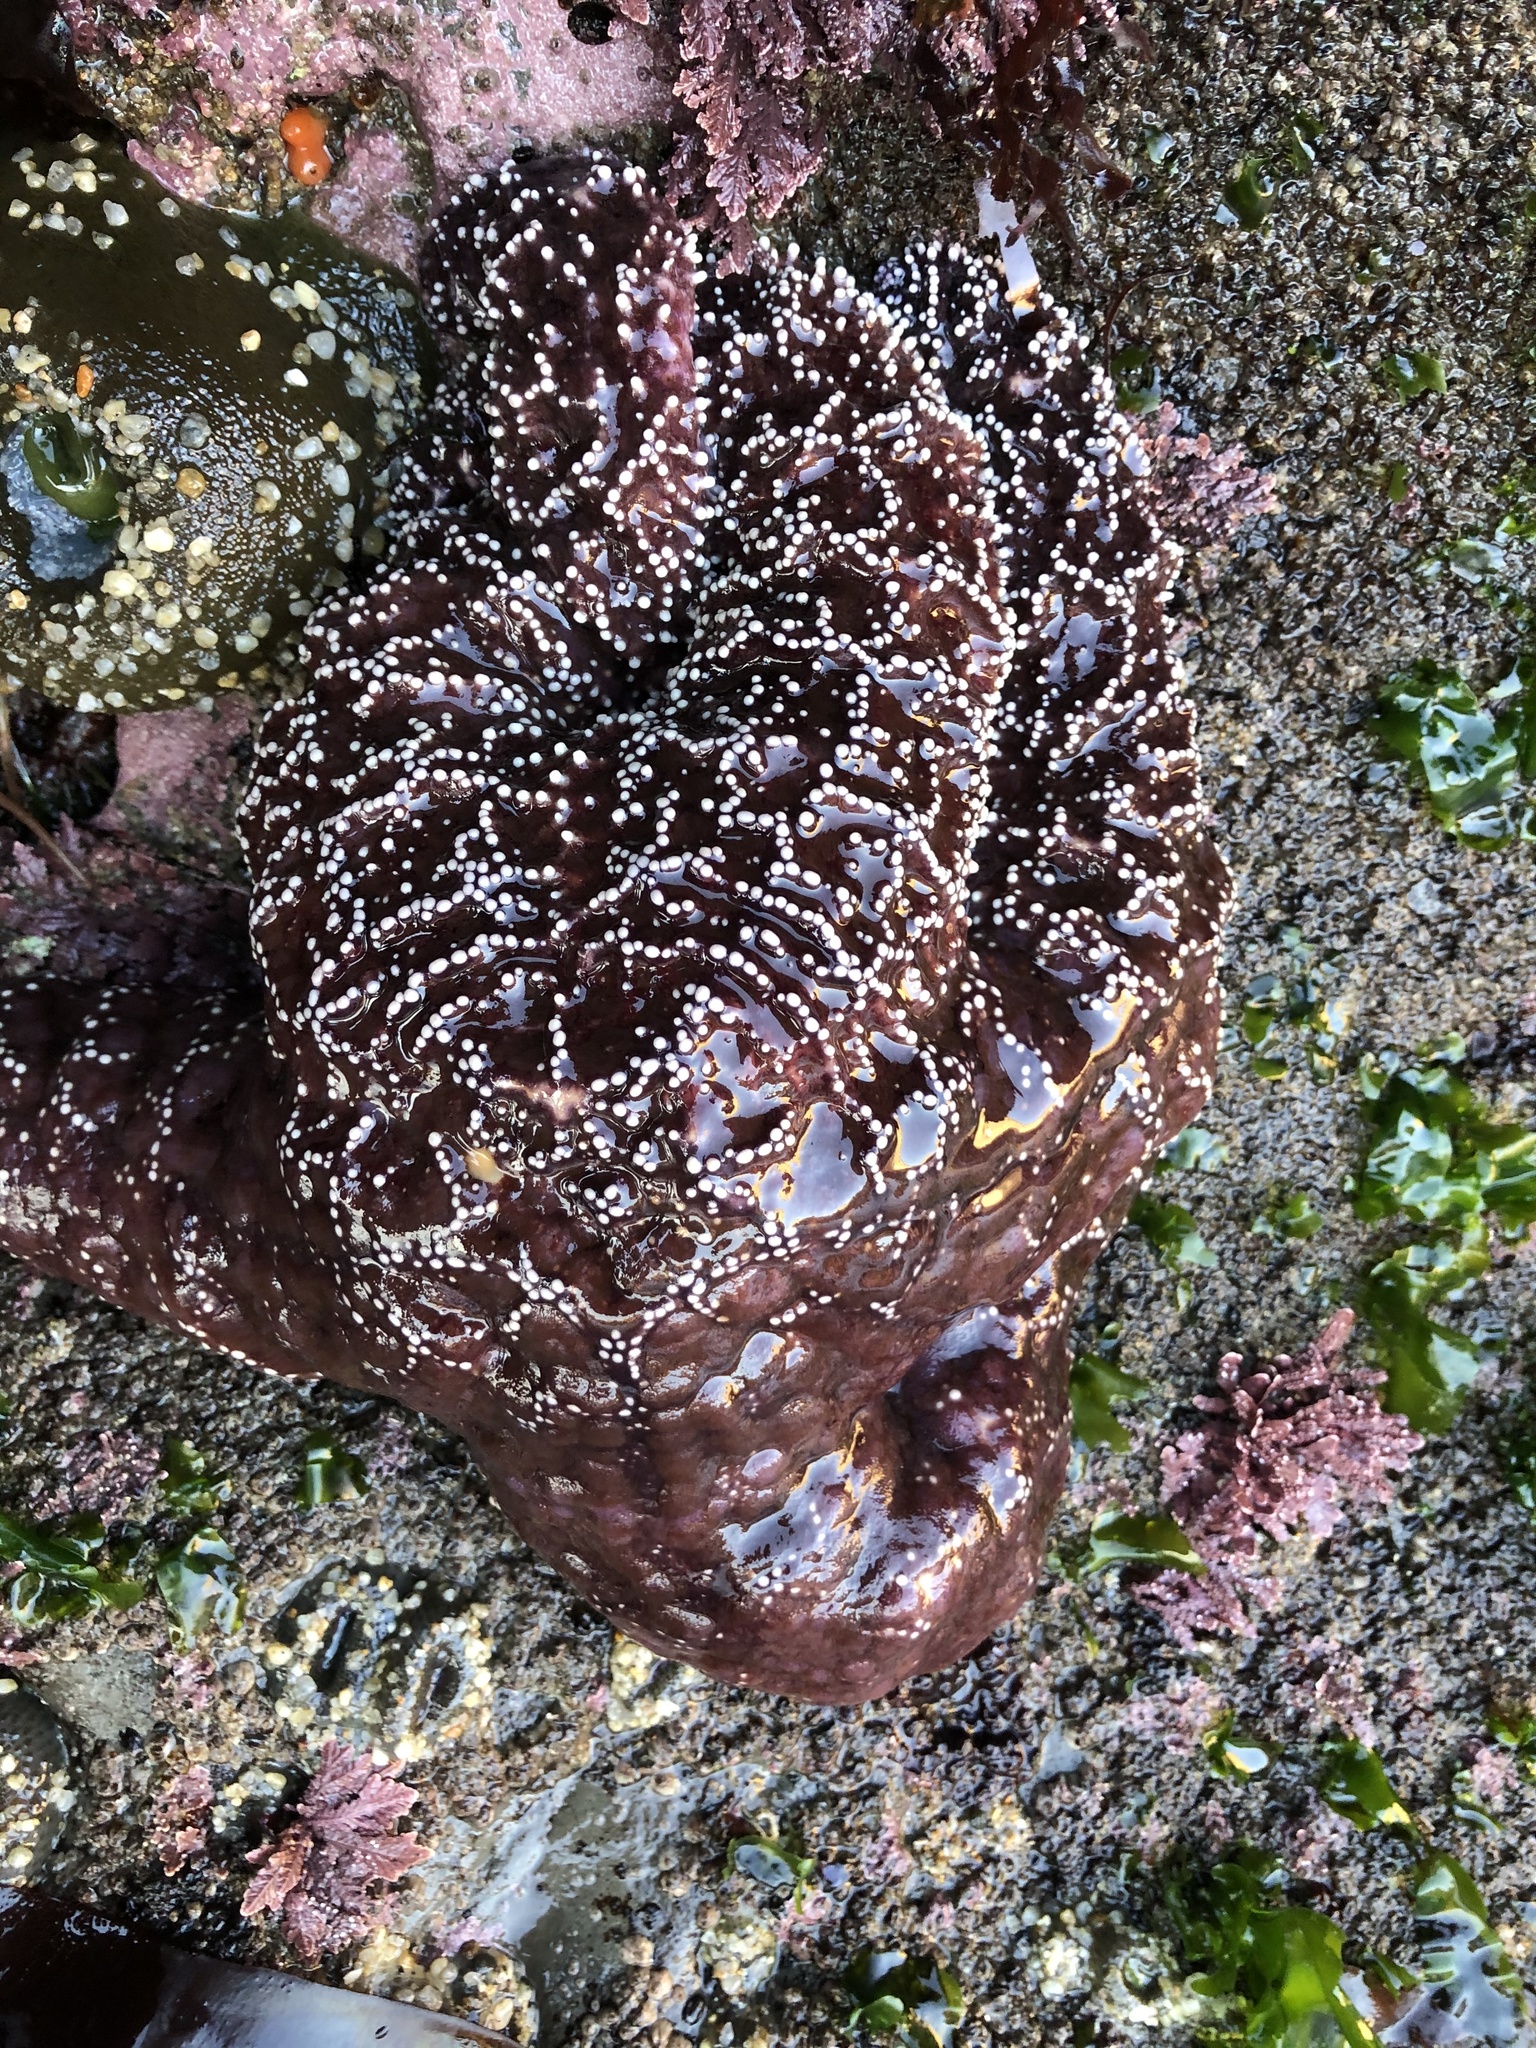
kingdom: Animalia
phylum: Echinodermata
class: Asteroidea
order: Forcipulatida
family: Asteriidae
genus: Pisaster
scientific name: Pisaster ochraceus
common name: Ochre stars
